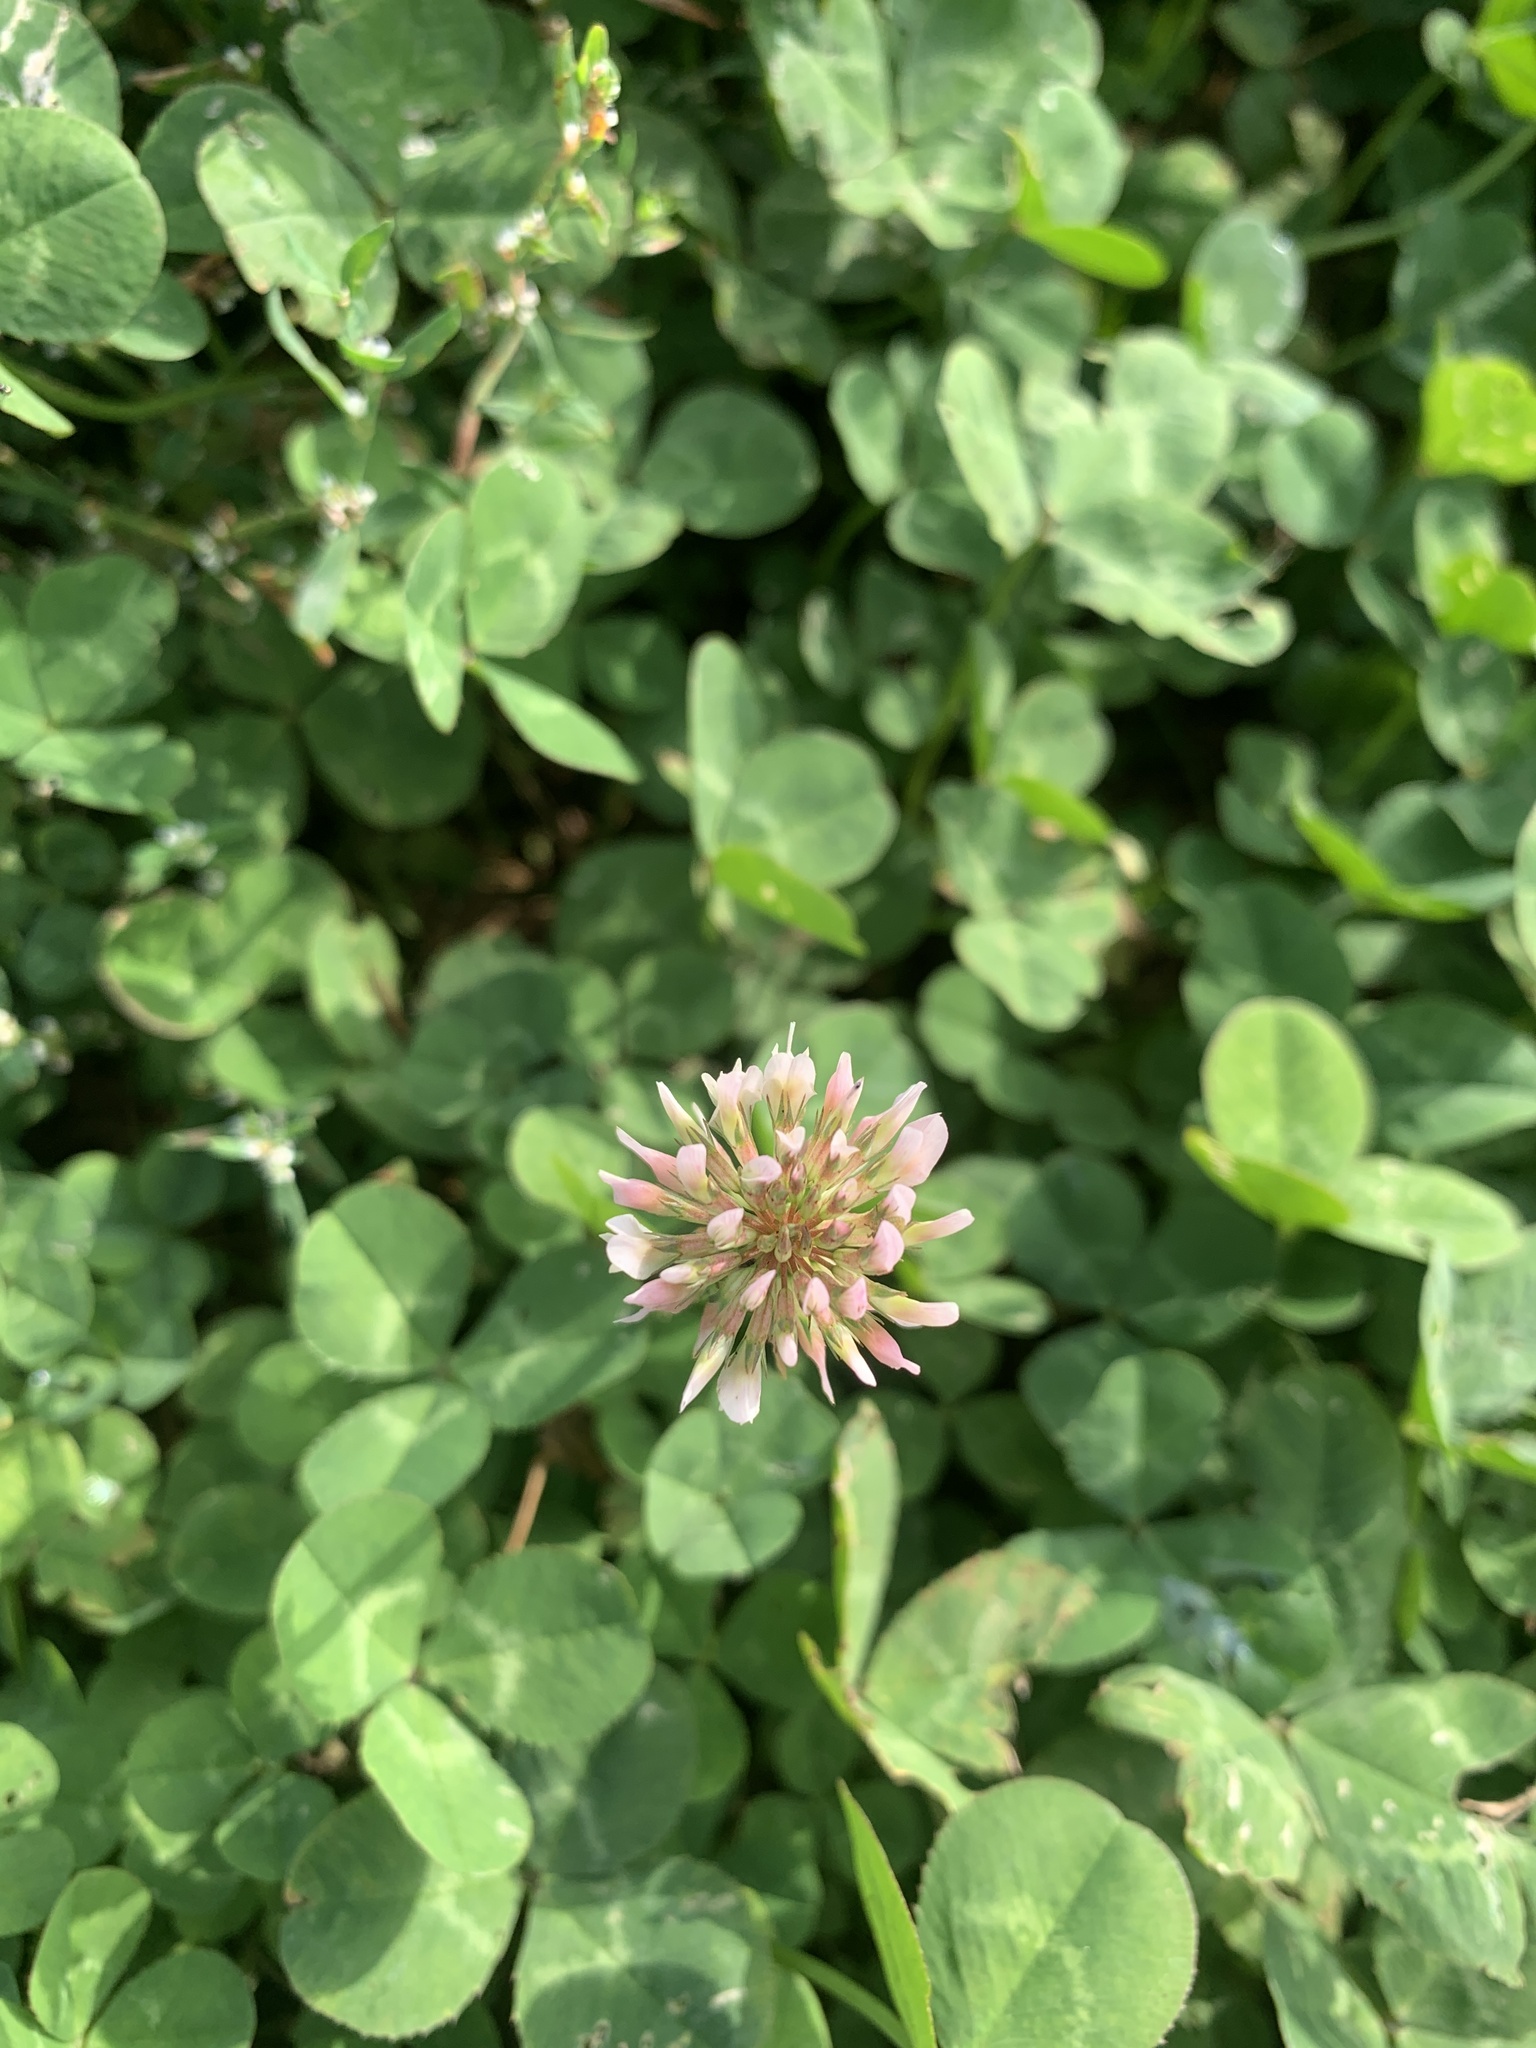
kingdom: Plantae
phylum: Tracheophyta
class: Magnoliopsida
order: Fabales
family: Fabaceae
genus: Trifolium
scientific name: Trifolium repens
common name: White clover
